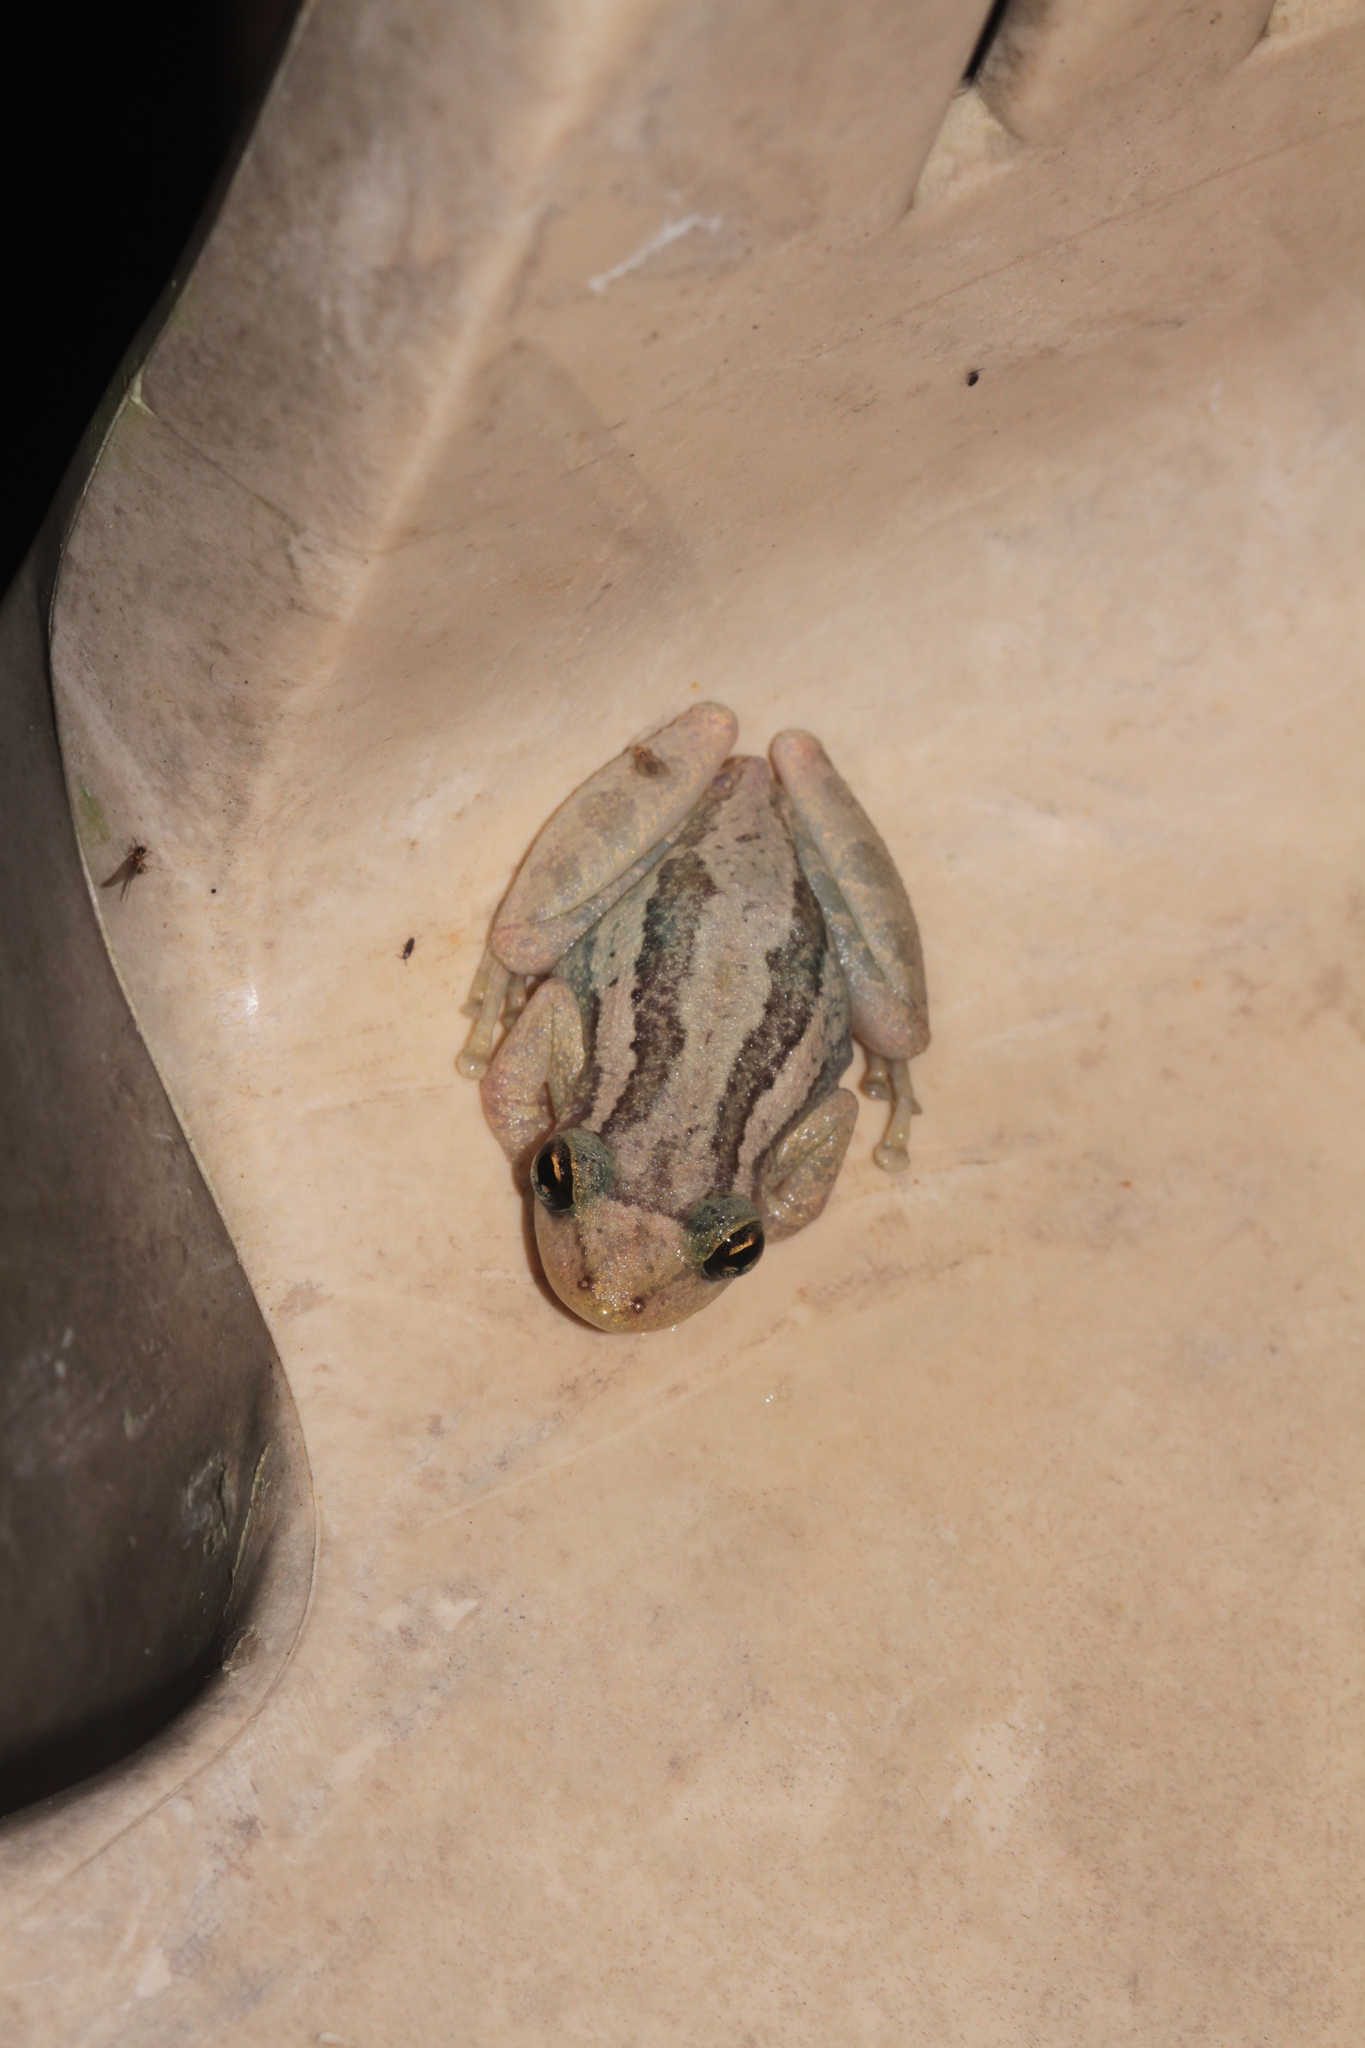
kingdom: Animalia
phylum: Chordata
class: Amphibia
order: Anura
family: Hylidae
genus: Scinax
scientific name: Scinax ruber
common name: Red snouted treefrog
